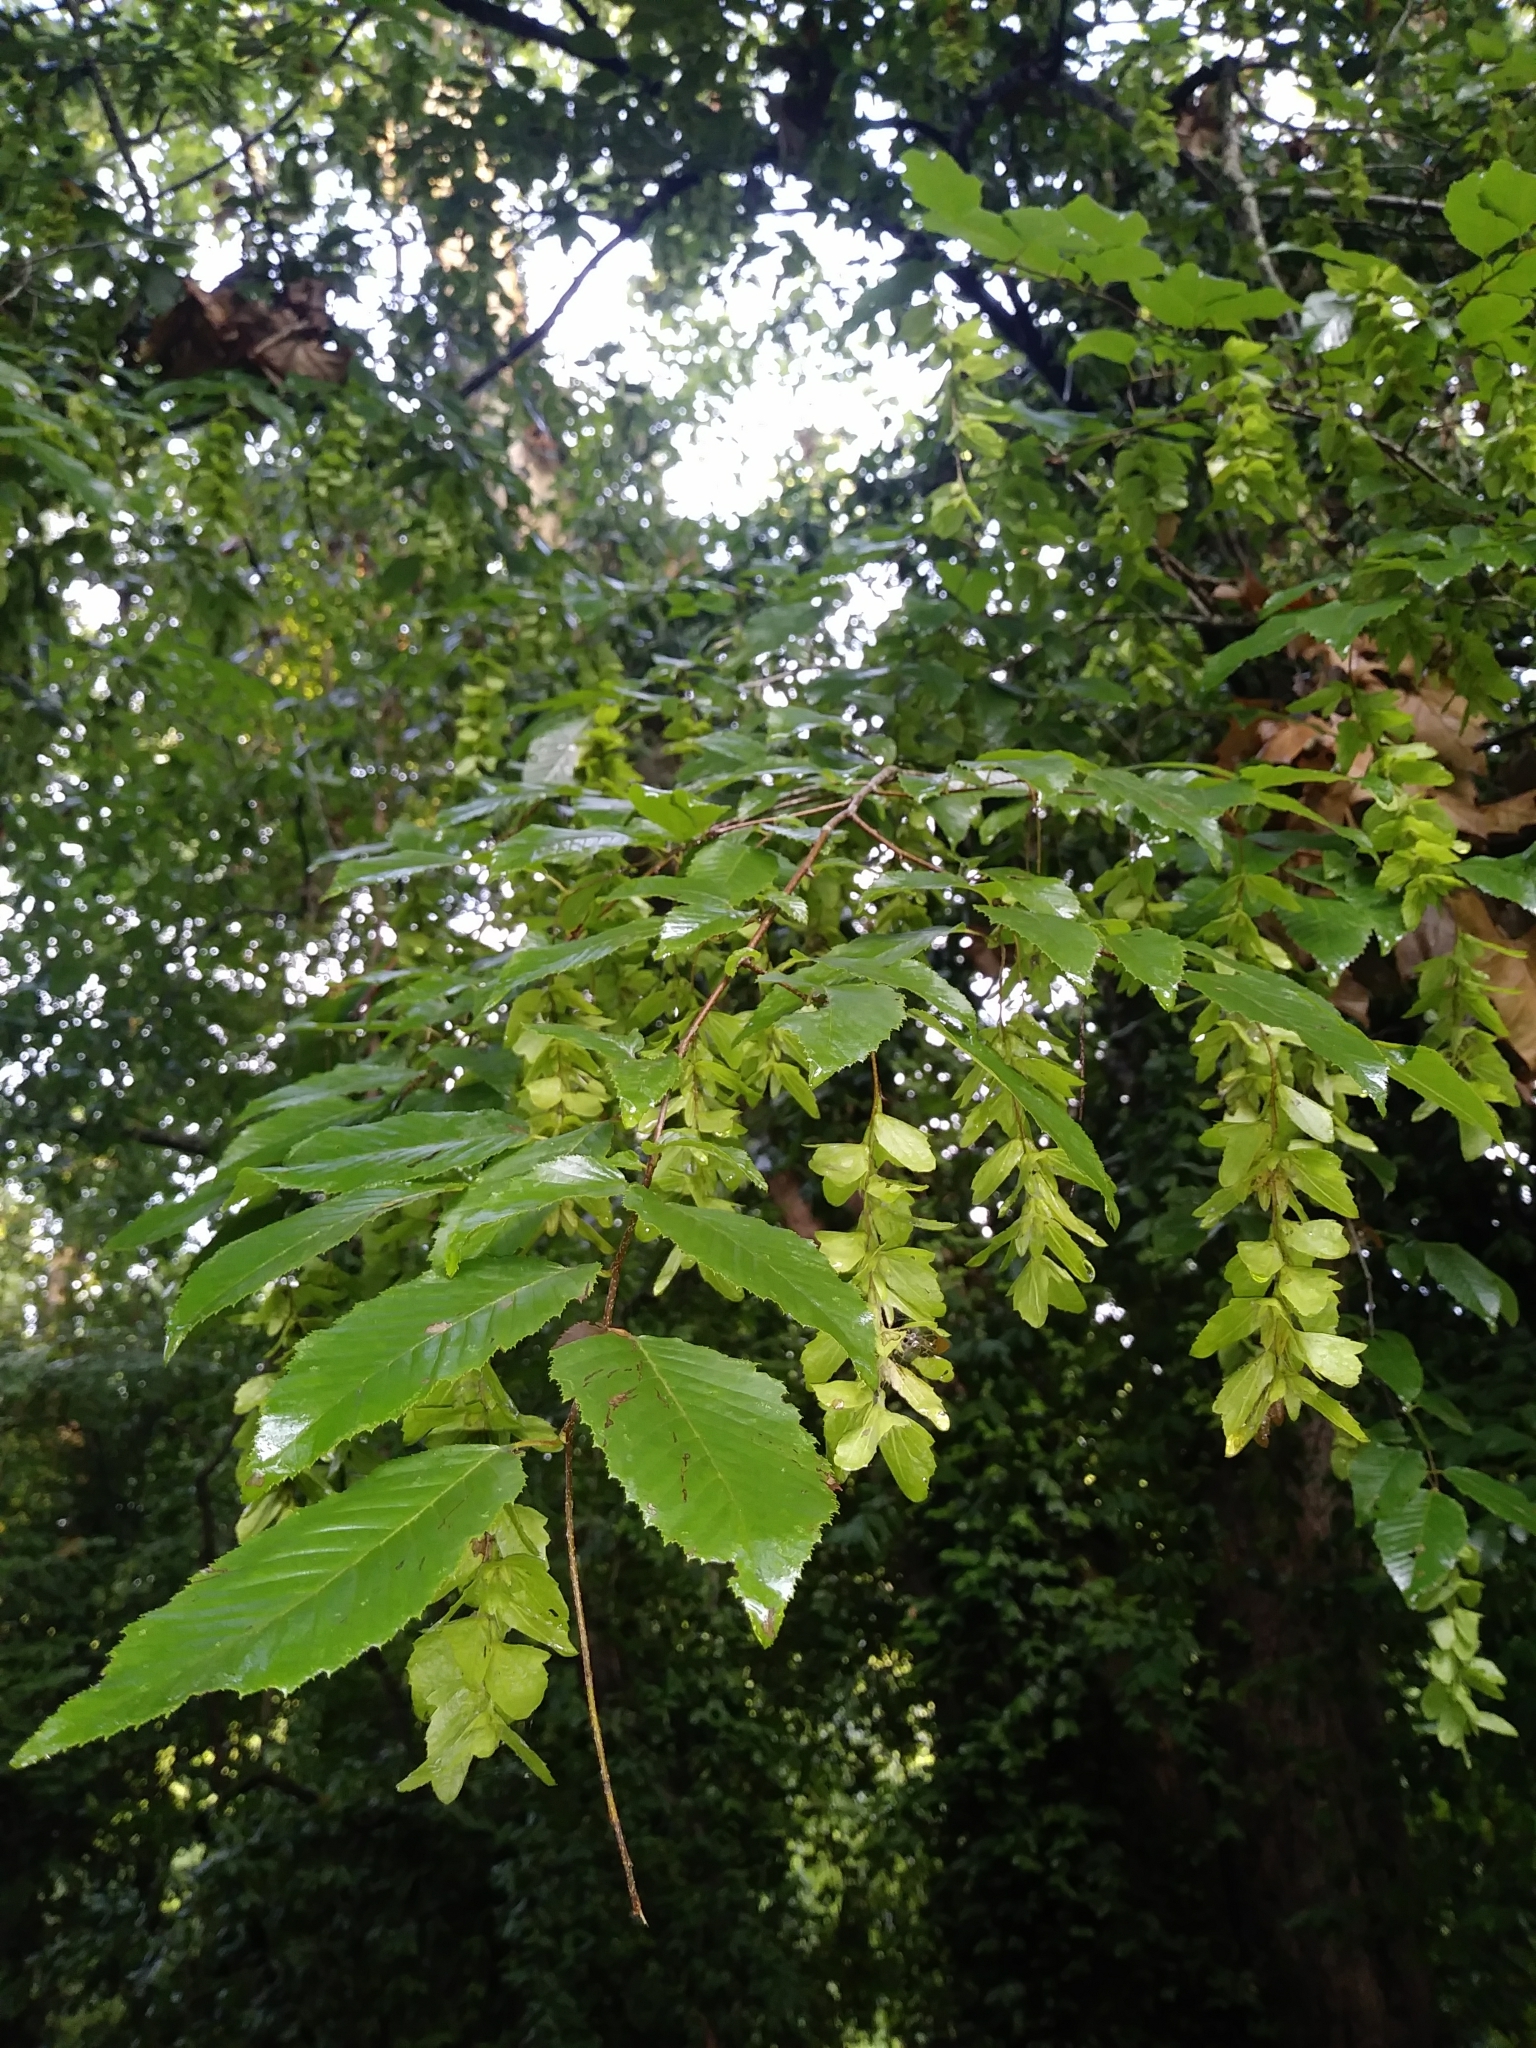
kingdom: Plantae
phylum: Tracheophyta
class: Magnoliopsida
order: Fagales
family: Betulaceae
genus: Carpinus
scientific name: Carpinus caroliniana
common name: American hornbeam
